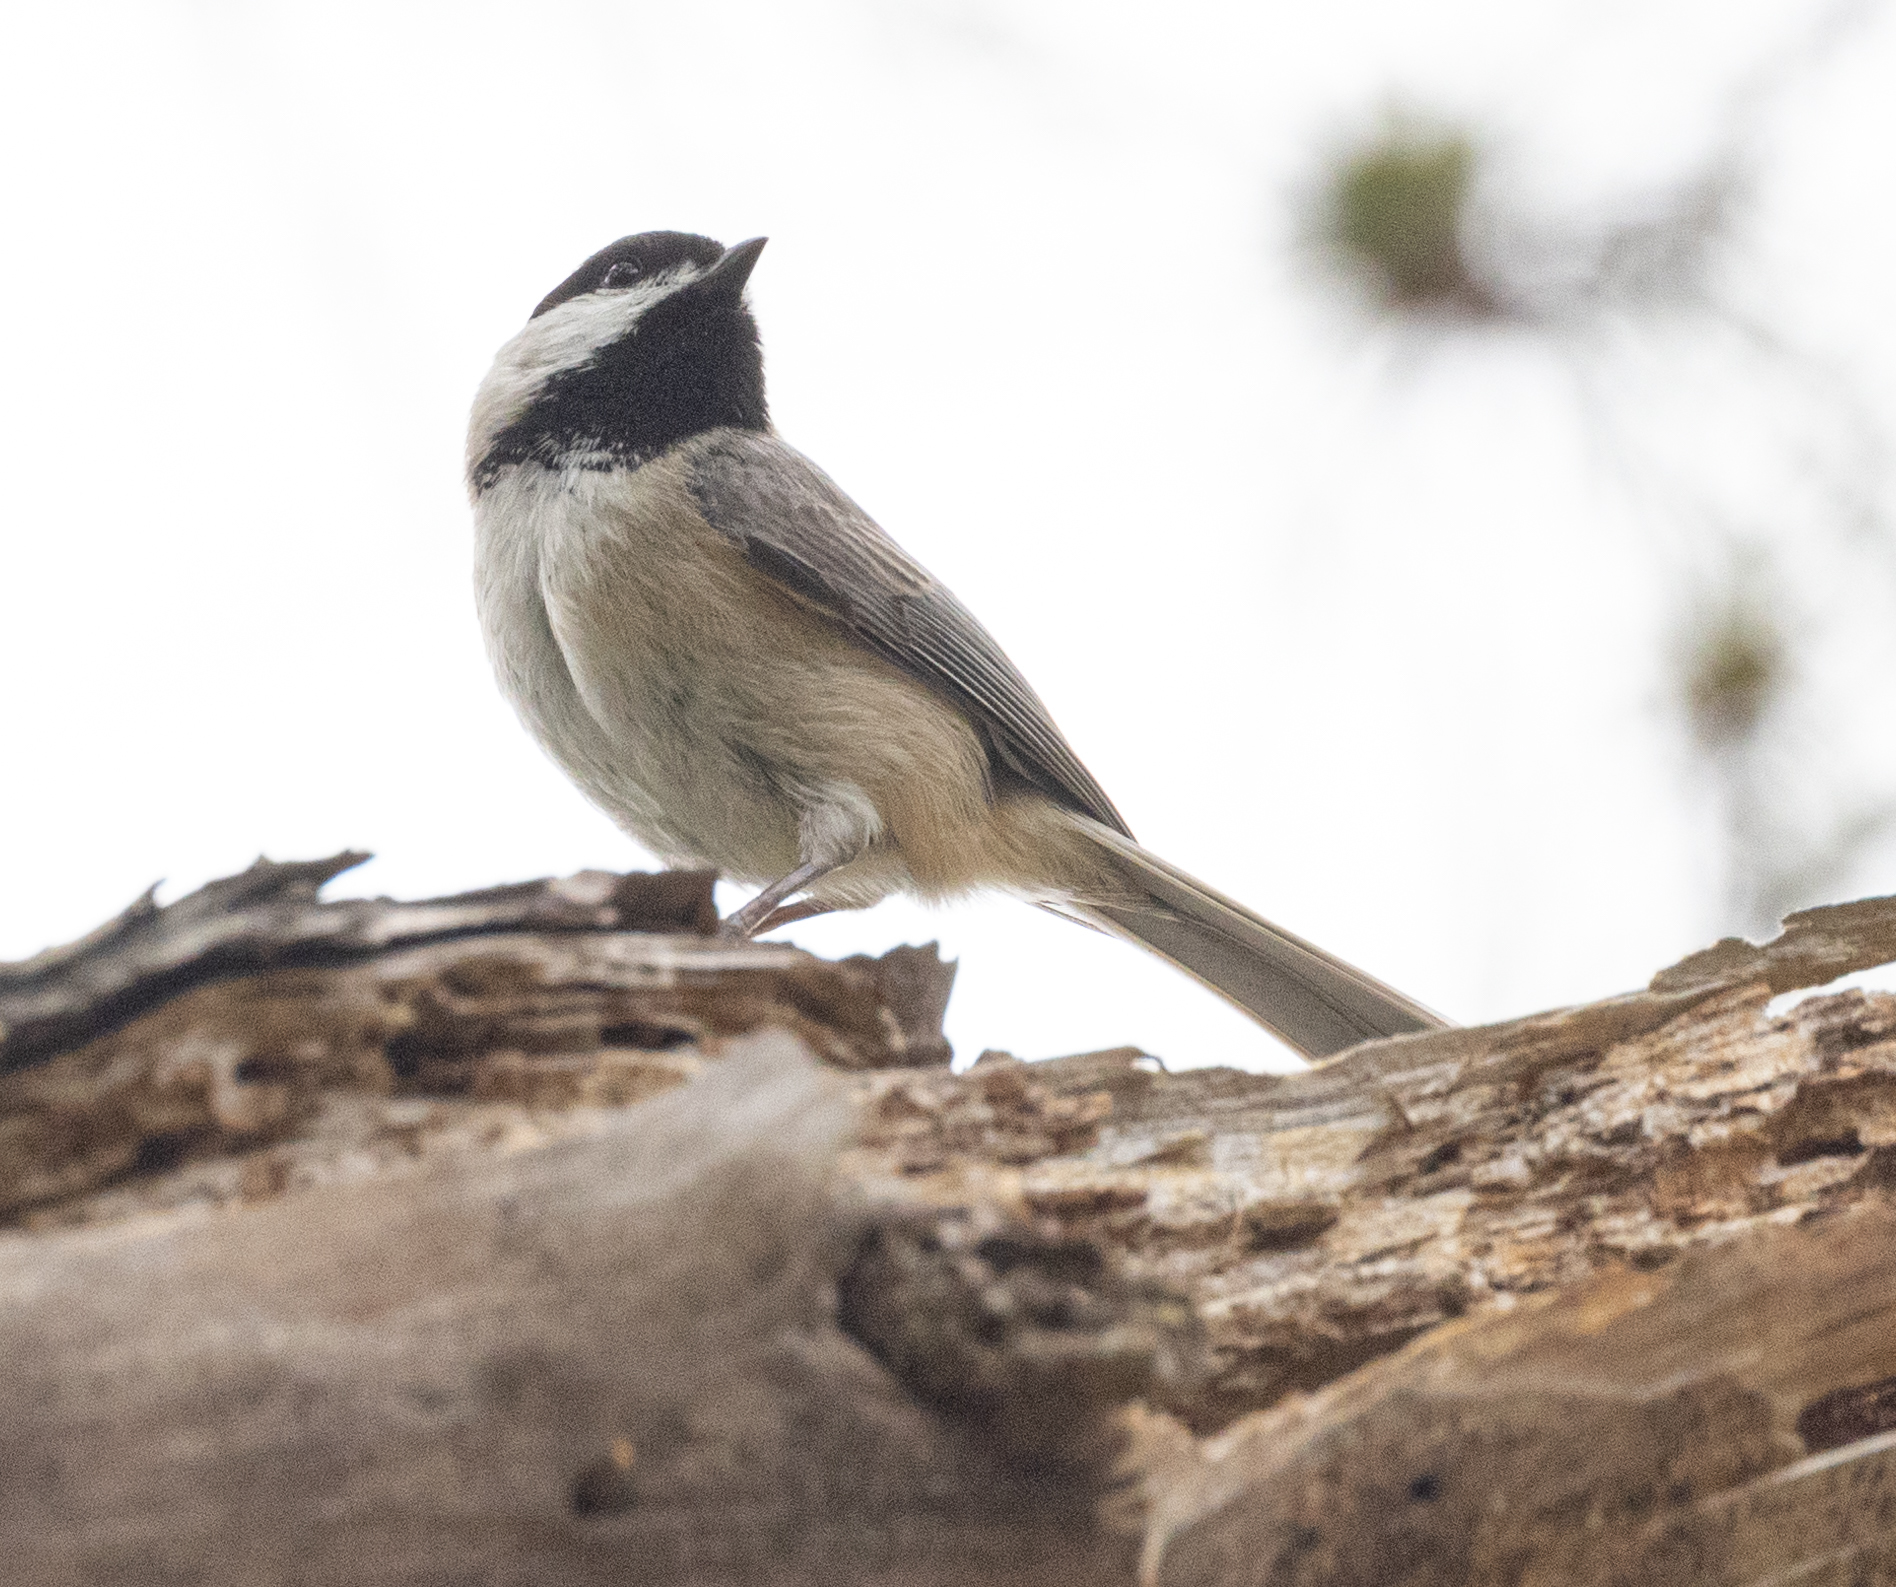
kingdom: Animalia
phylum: Chordata
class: Aves
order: Passeriformes
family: Paridae
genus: Poecile
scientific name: Poecile carolinensis
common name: Carolina chickadee
